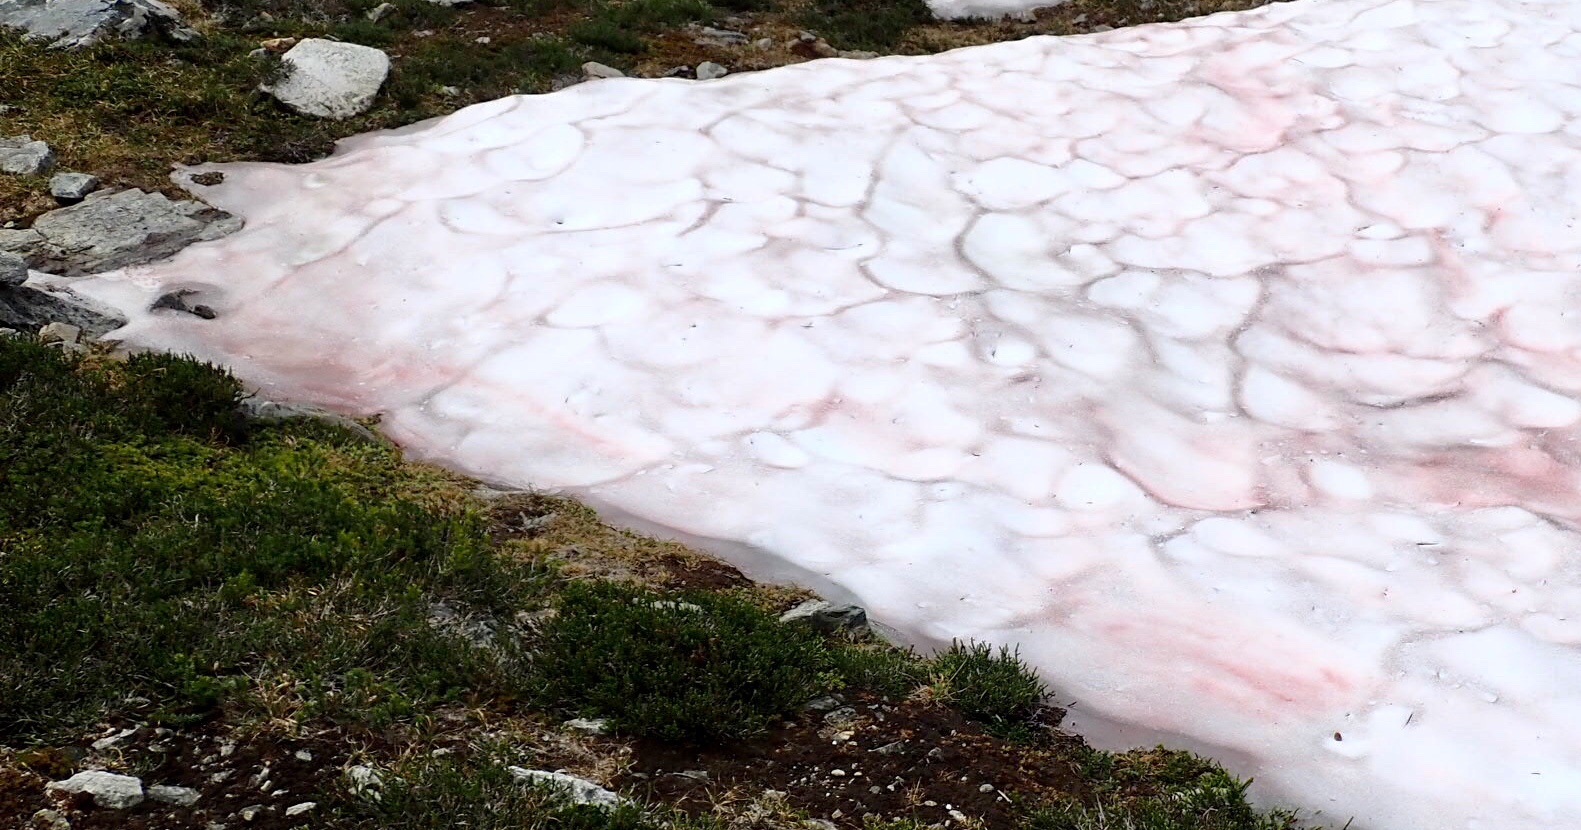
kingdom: Plantae
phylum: Chlorophyta
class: Chlorophyceae
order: Volvocales
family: Chlamydomonadaceae
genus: Chlamydomonas
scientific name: Chlamydomonas nivalis
